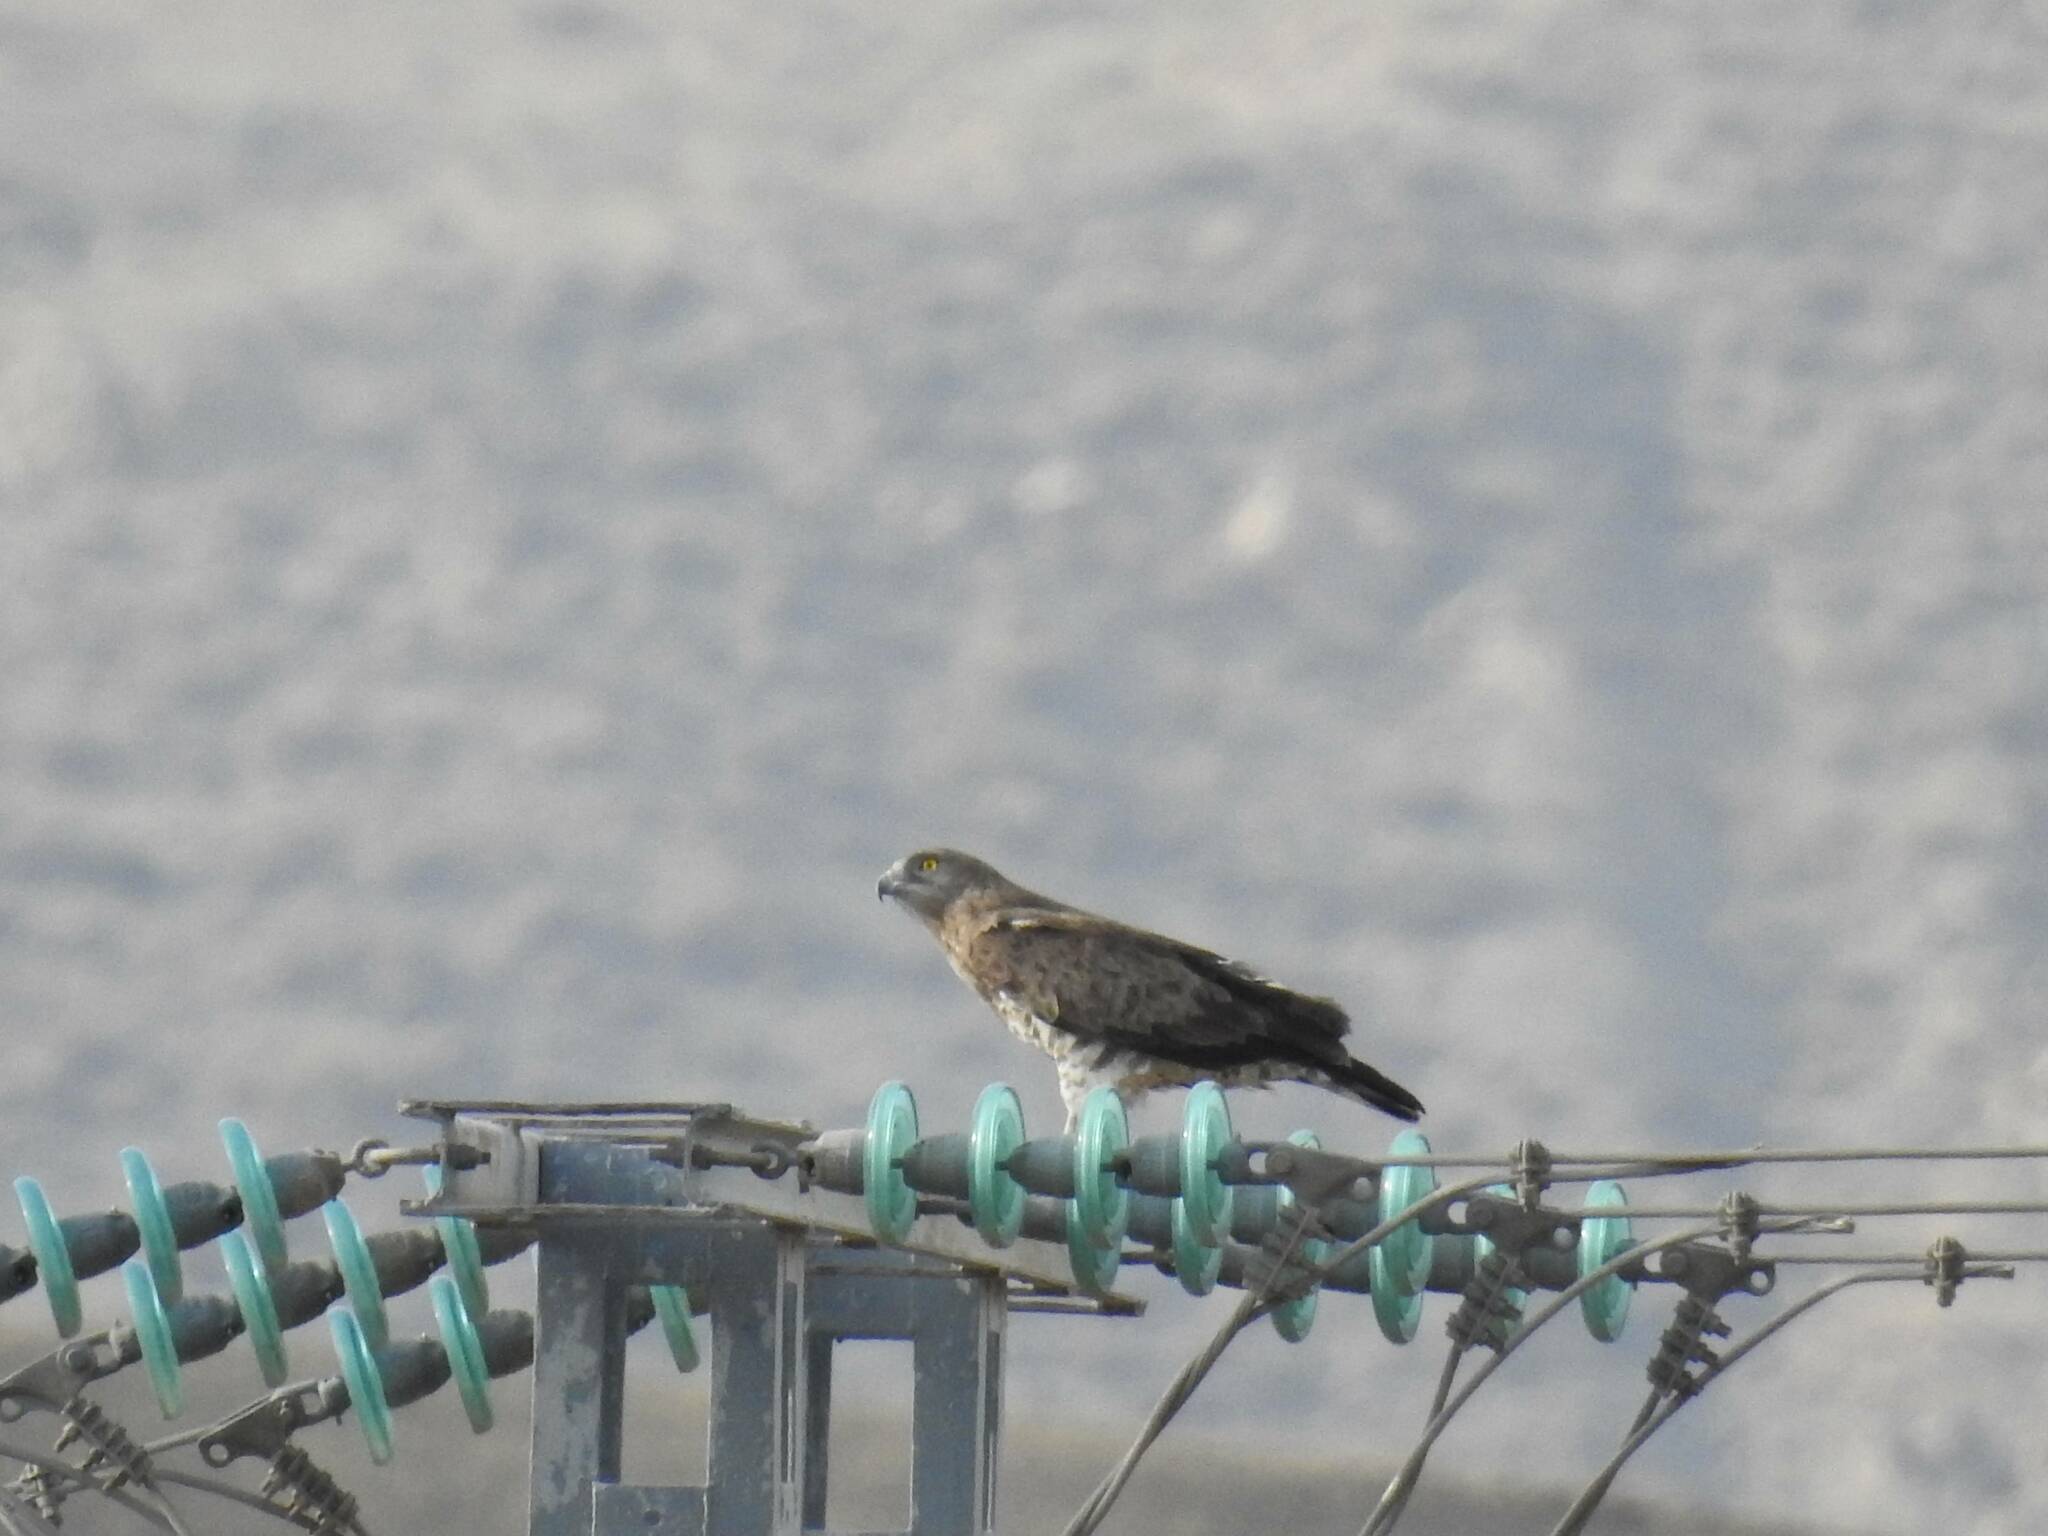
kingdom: Animalia
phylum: Chordata
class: Aves
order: Accipitriformes
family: Accipitridae
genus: Circaetus
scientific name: Circaetus gallicus
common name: Short-toed snake eagle
